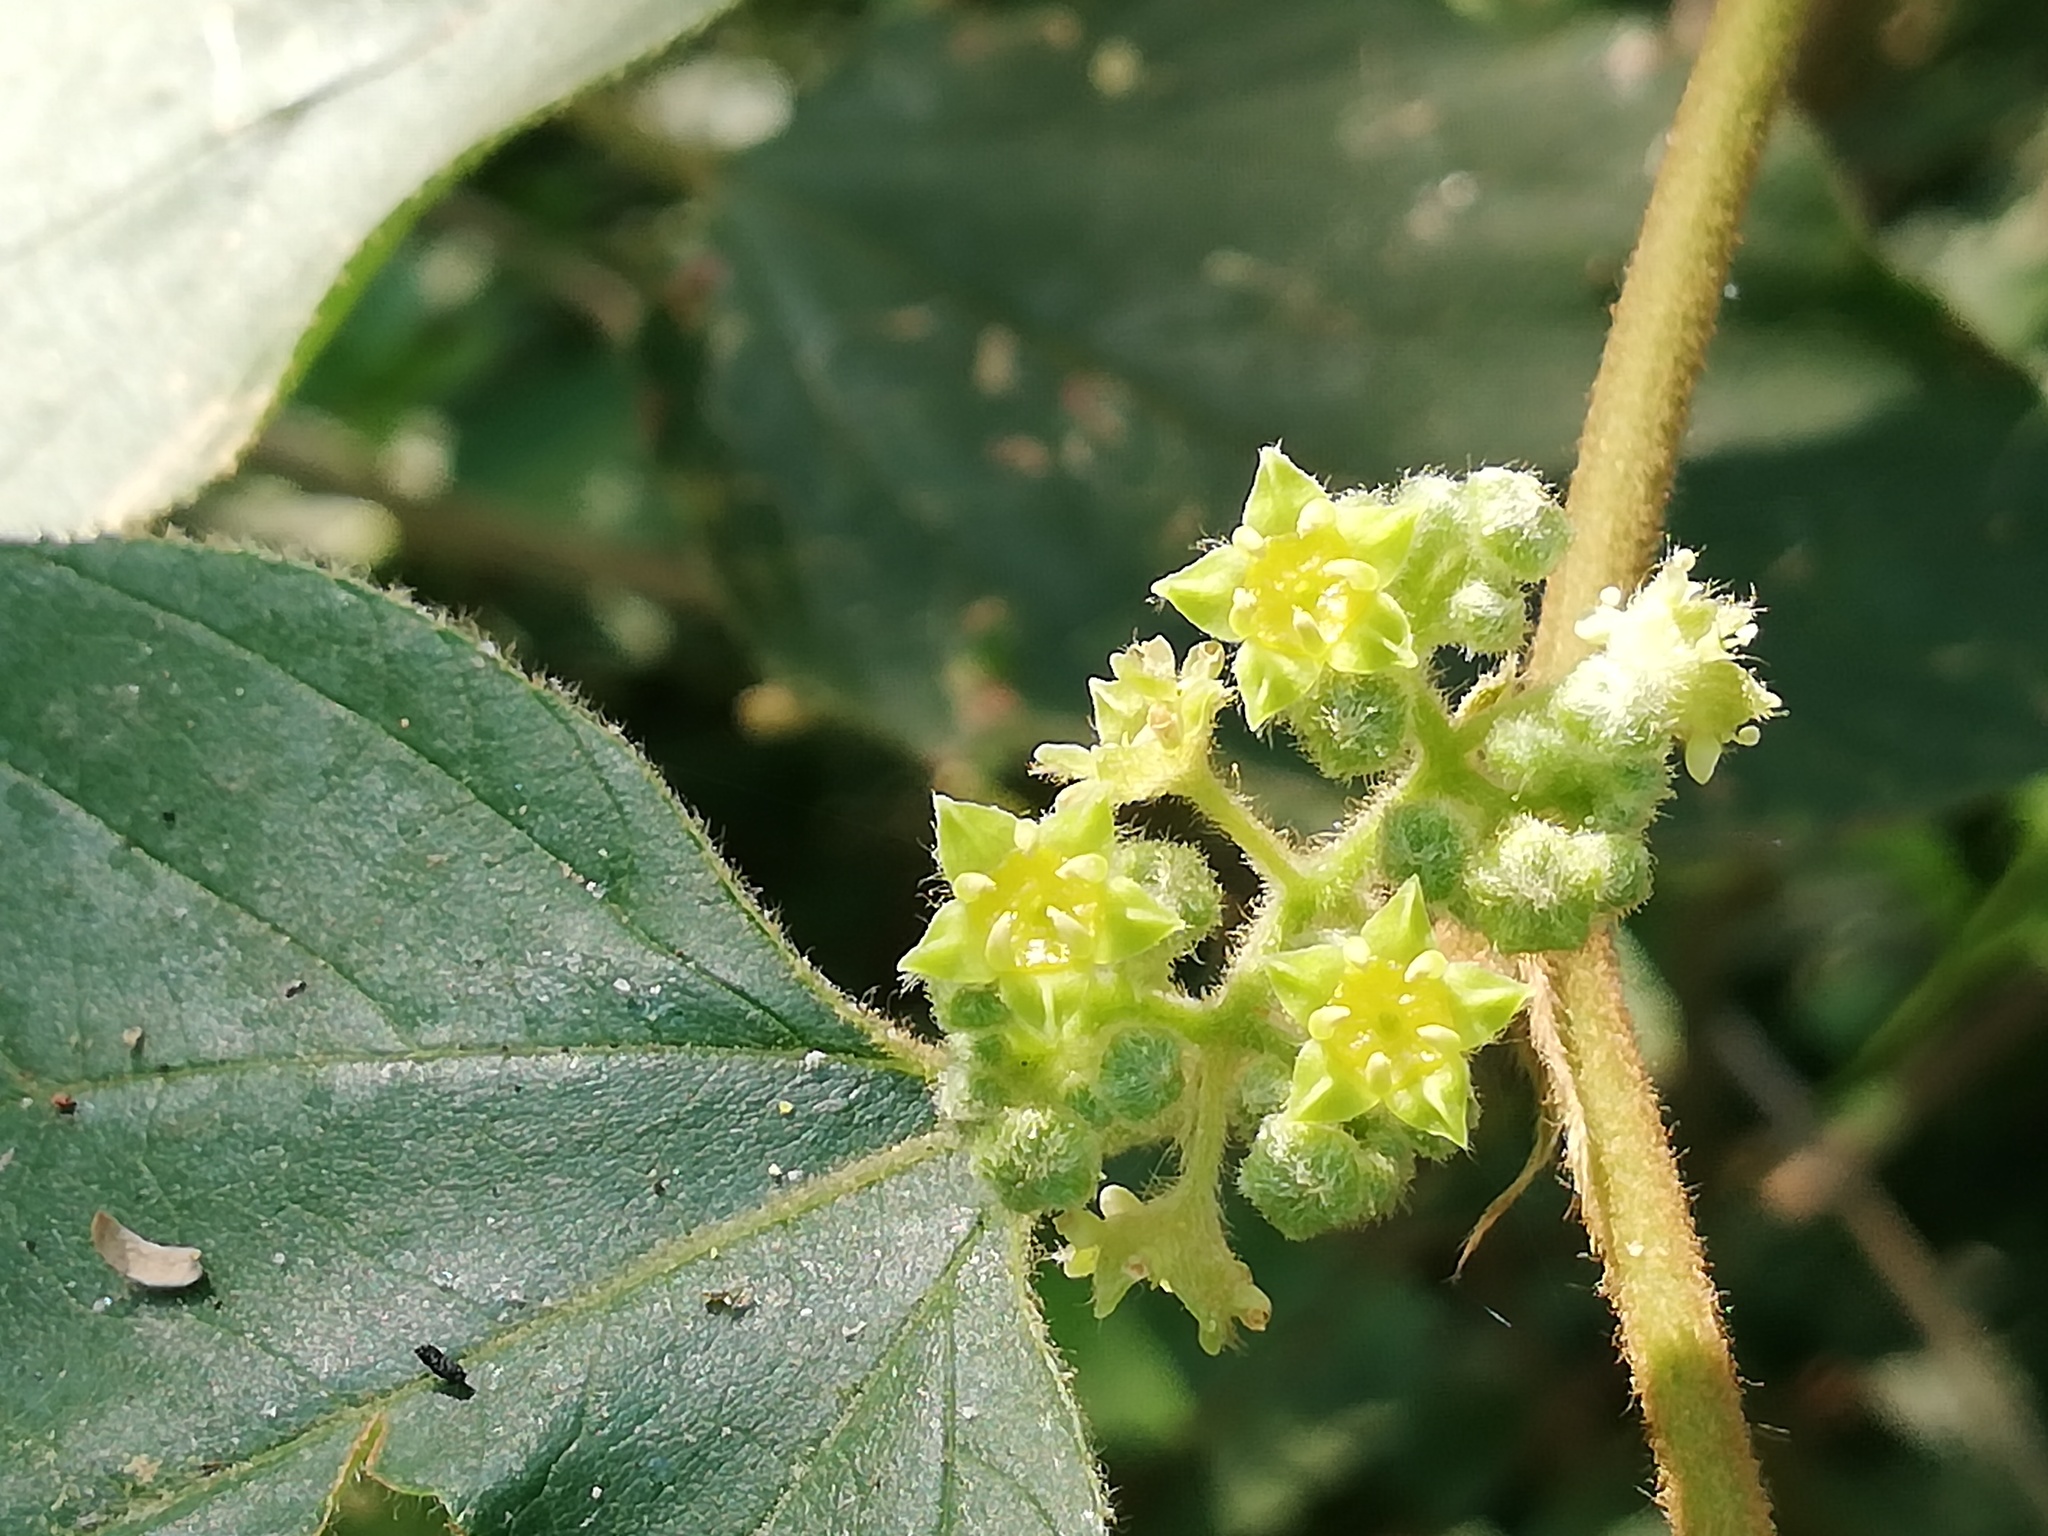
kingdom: Plantae
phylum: Tracheophyta
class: Magnoliopsida
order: Rosales
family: Rhamnaceae
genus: Colubrina
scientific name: Colubrina greggii
